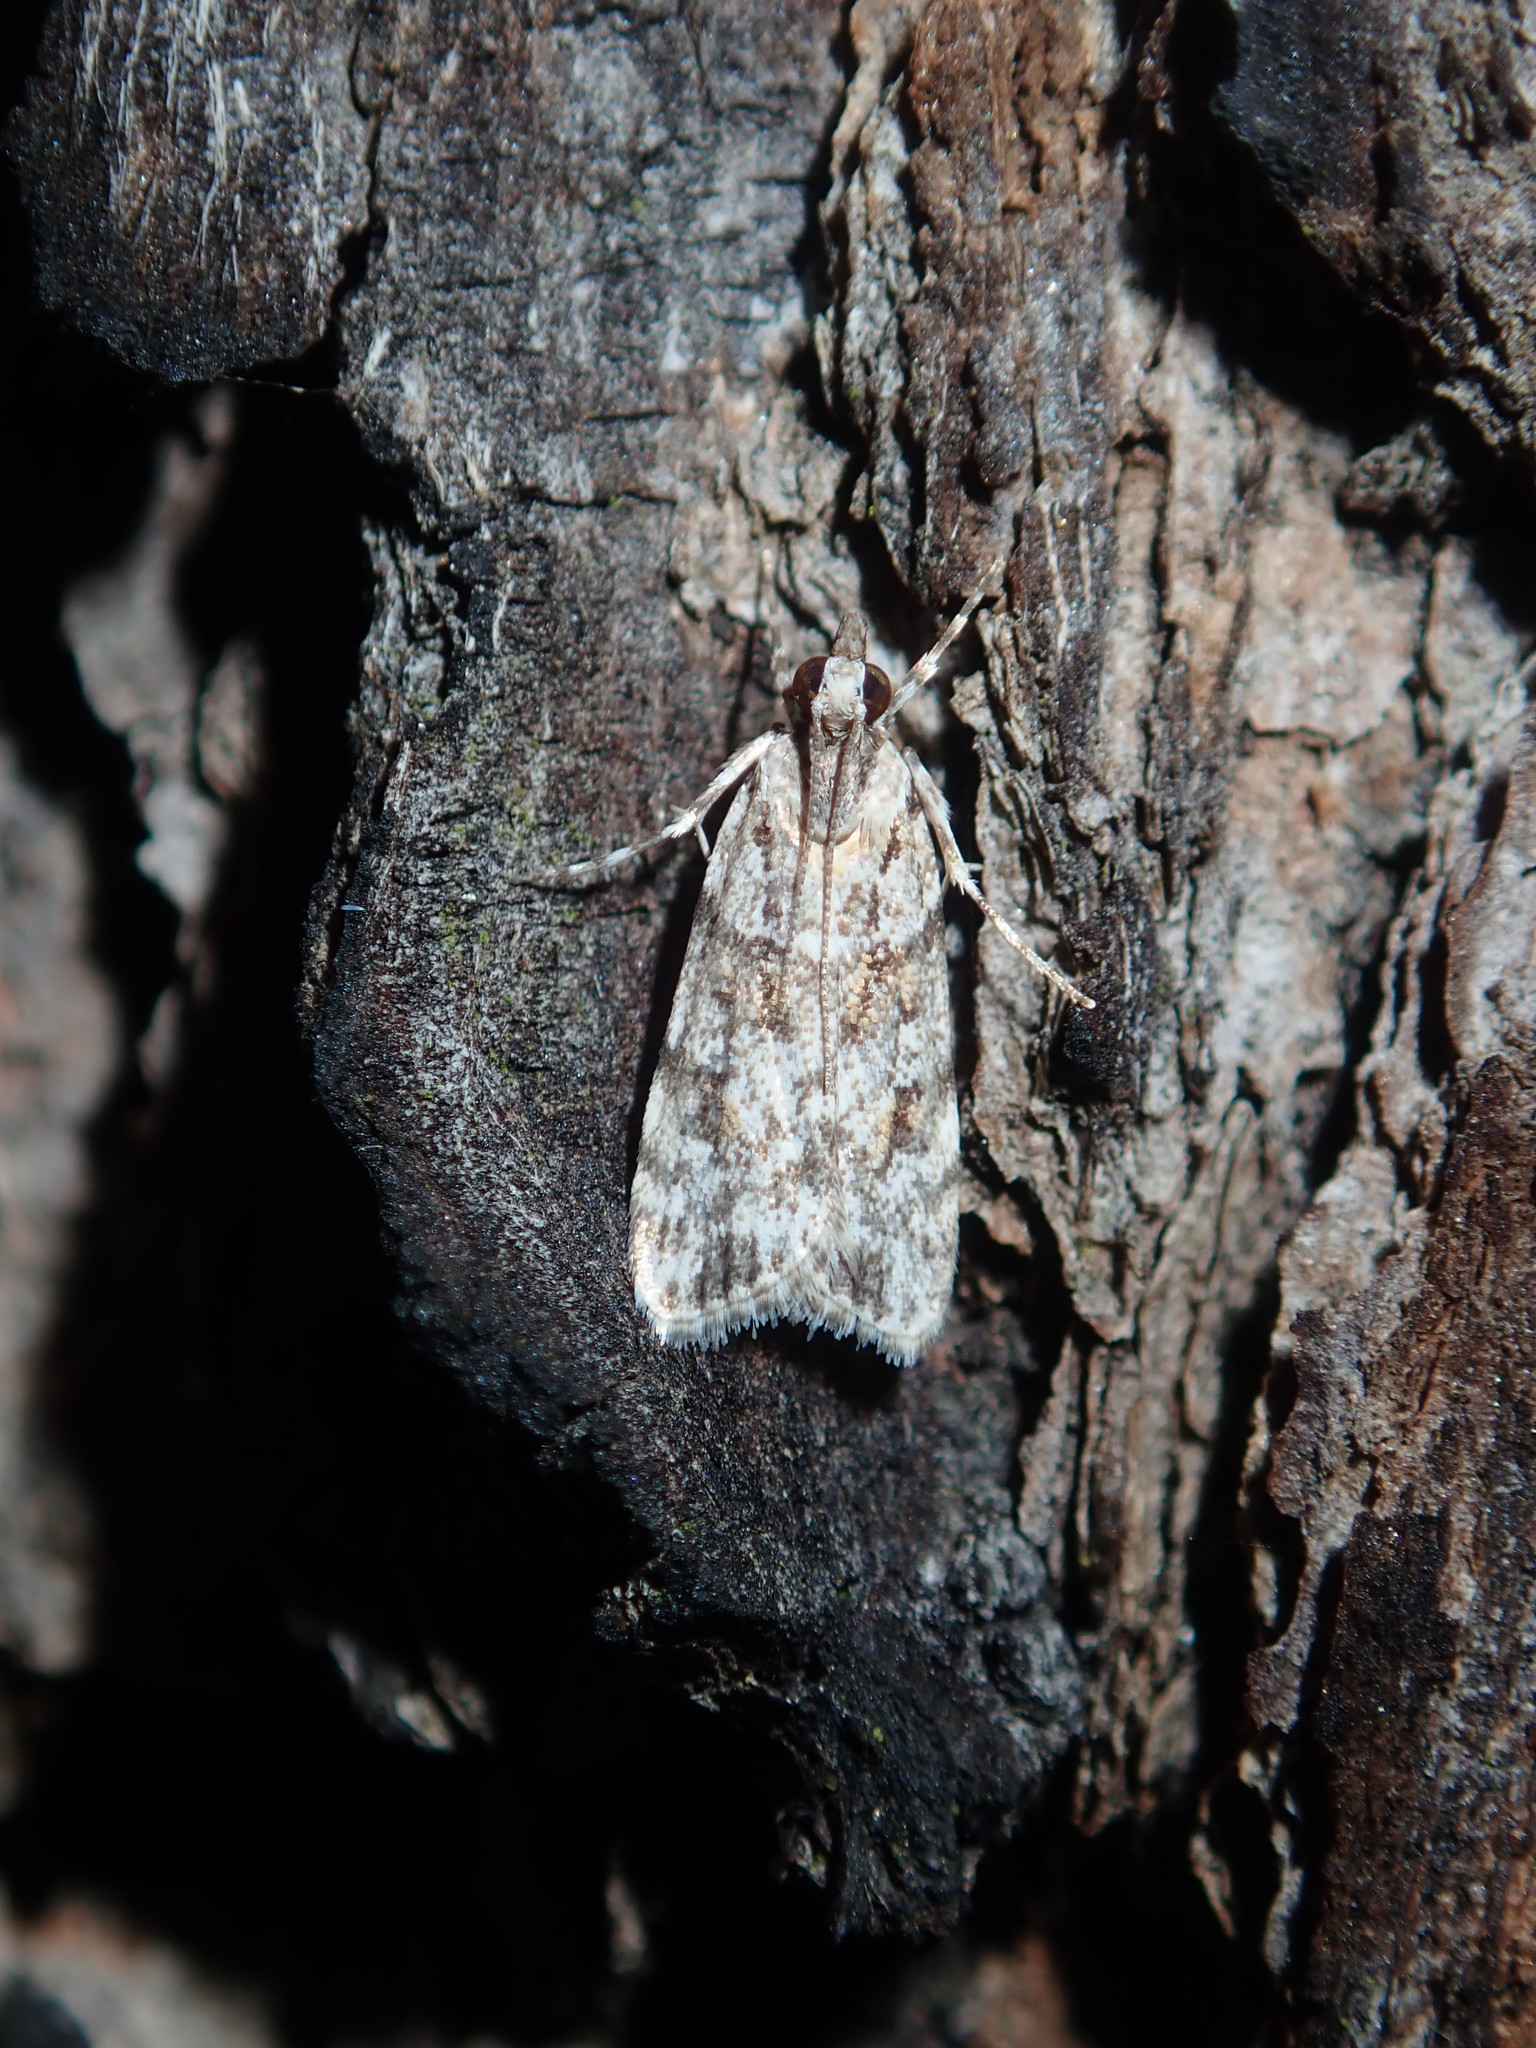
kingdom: Animalia
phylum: Arthropoda
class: Insecta
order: Lepidoptera
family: Crambidae
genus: Scoparia
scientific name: Scoparia chiasta
